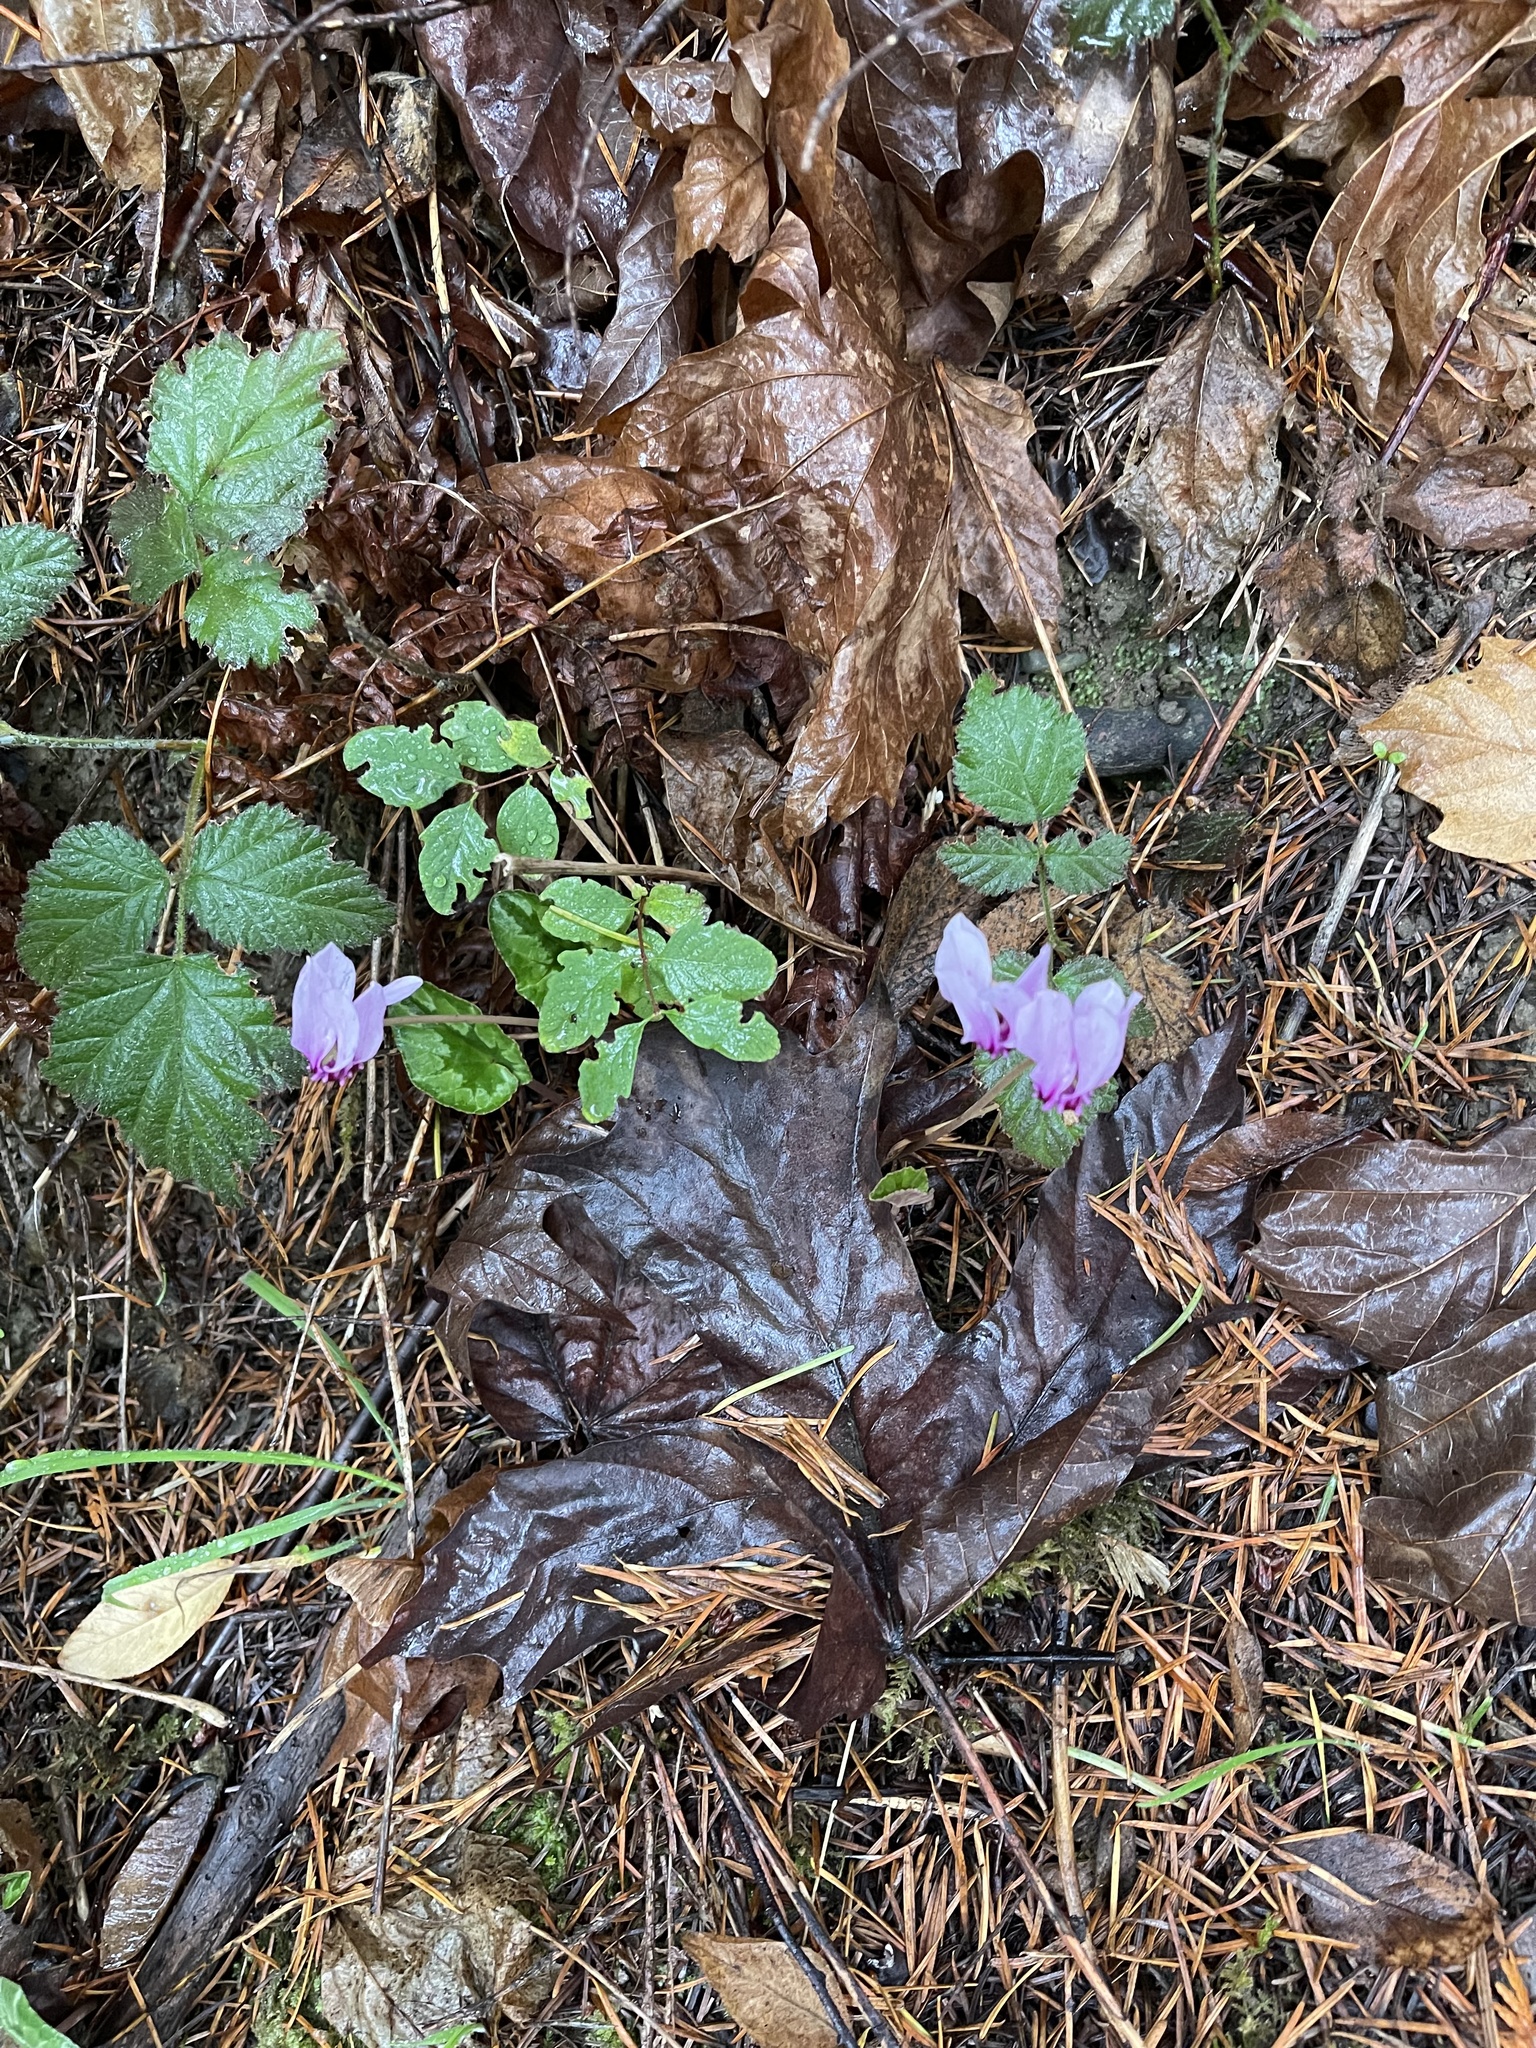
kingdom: Plantae
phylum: Tracheophyta
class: Magnoliopsida
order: Ericales
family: Primulaceae
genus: Cyclamen
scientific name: Cyclamen hederifolium
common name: Sowbread
